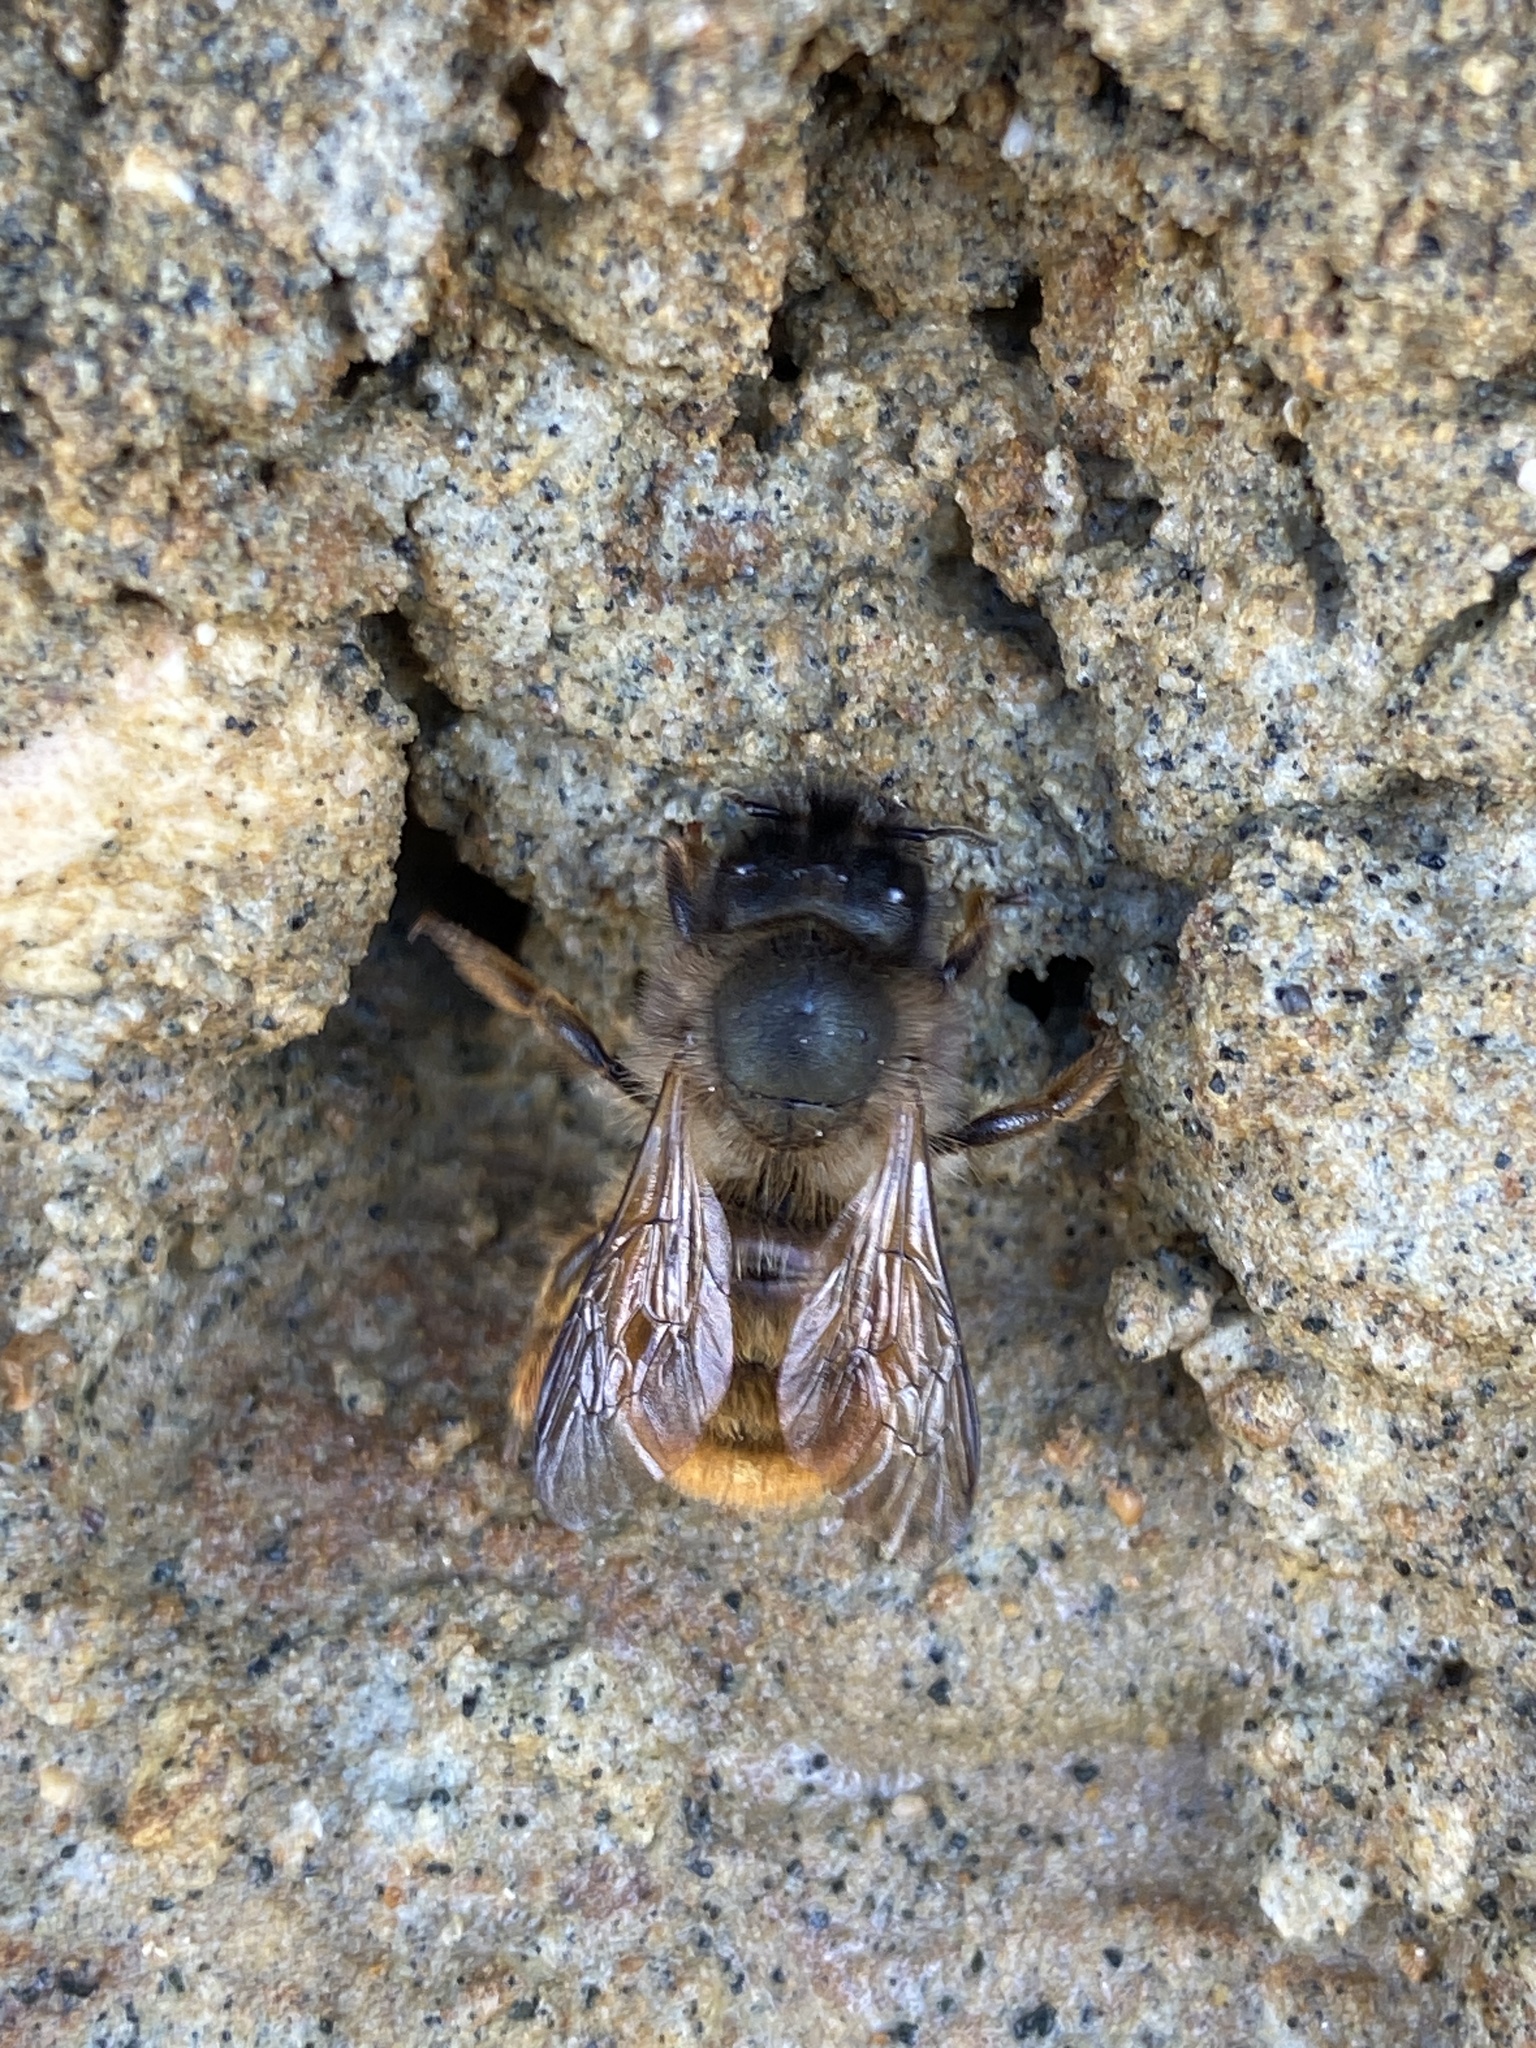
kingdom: Animalia
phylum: Arthropoda
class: Insecta
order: Hymenoptera
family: Megachilidae
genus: Osmia
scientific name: Osmia bicornis
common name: Red mason bee
